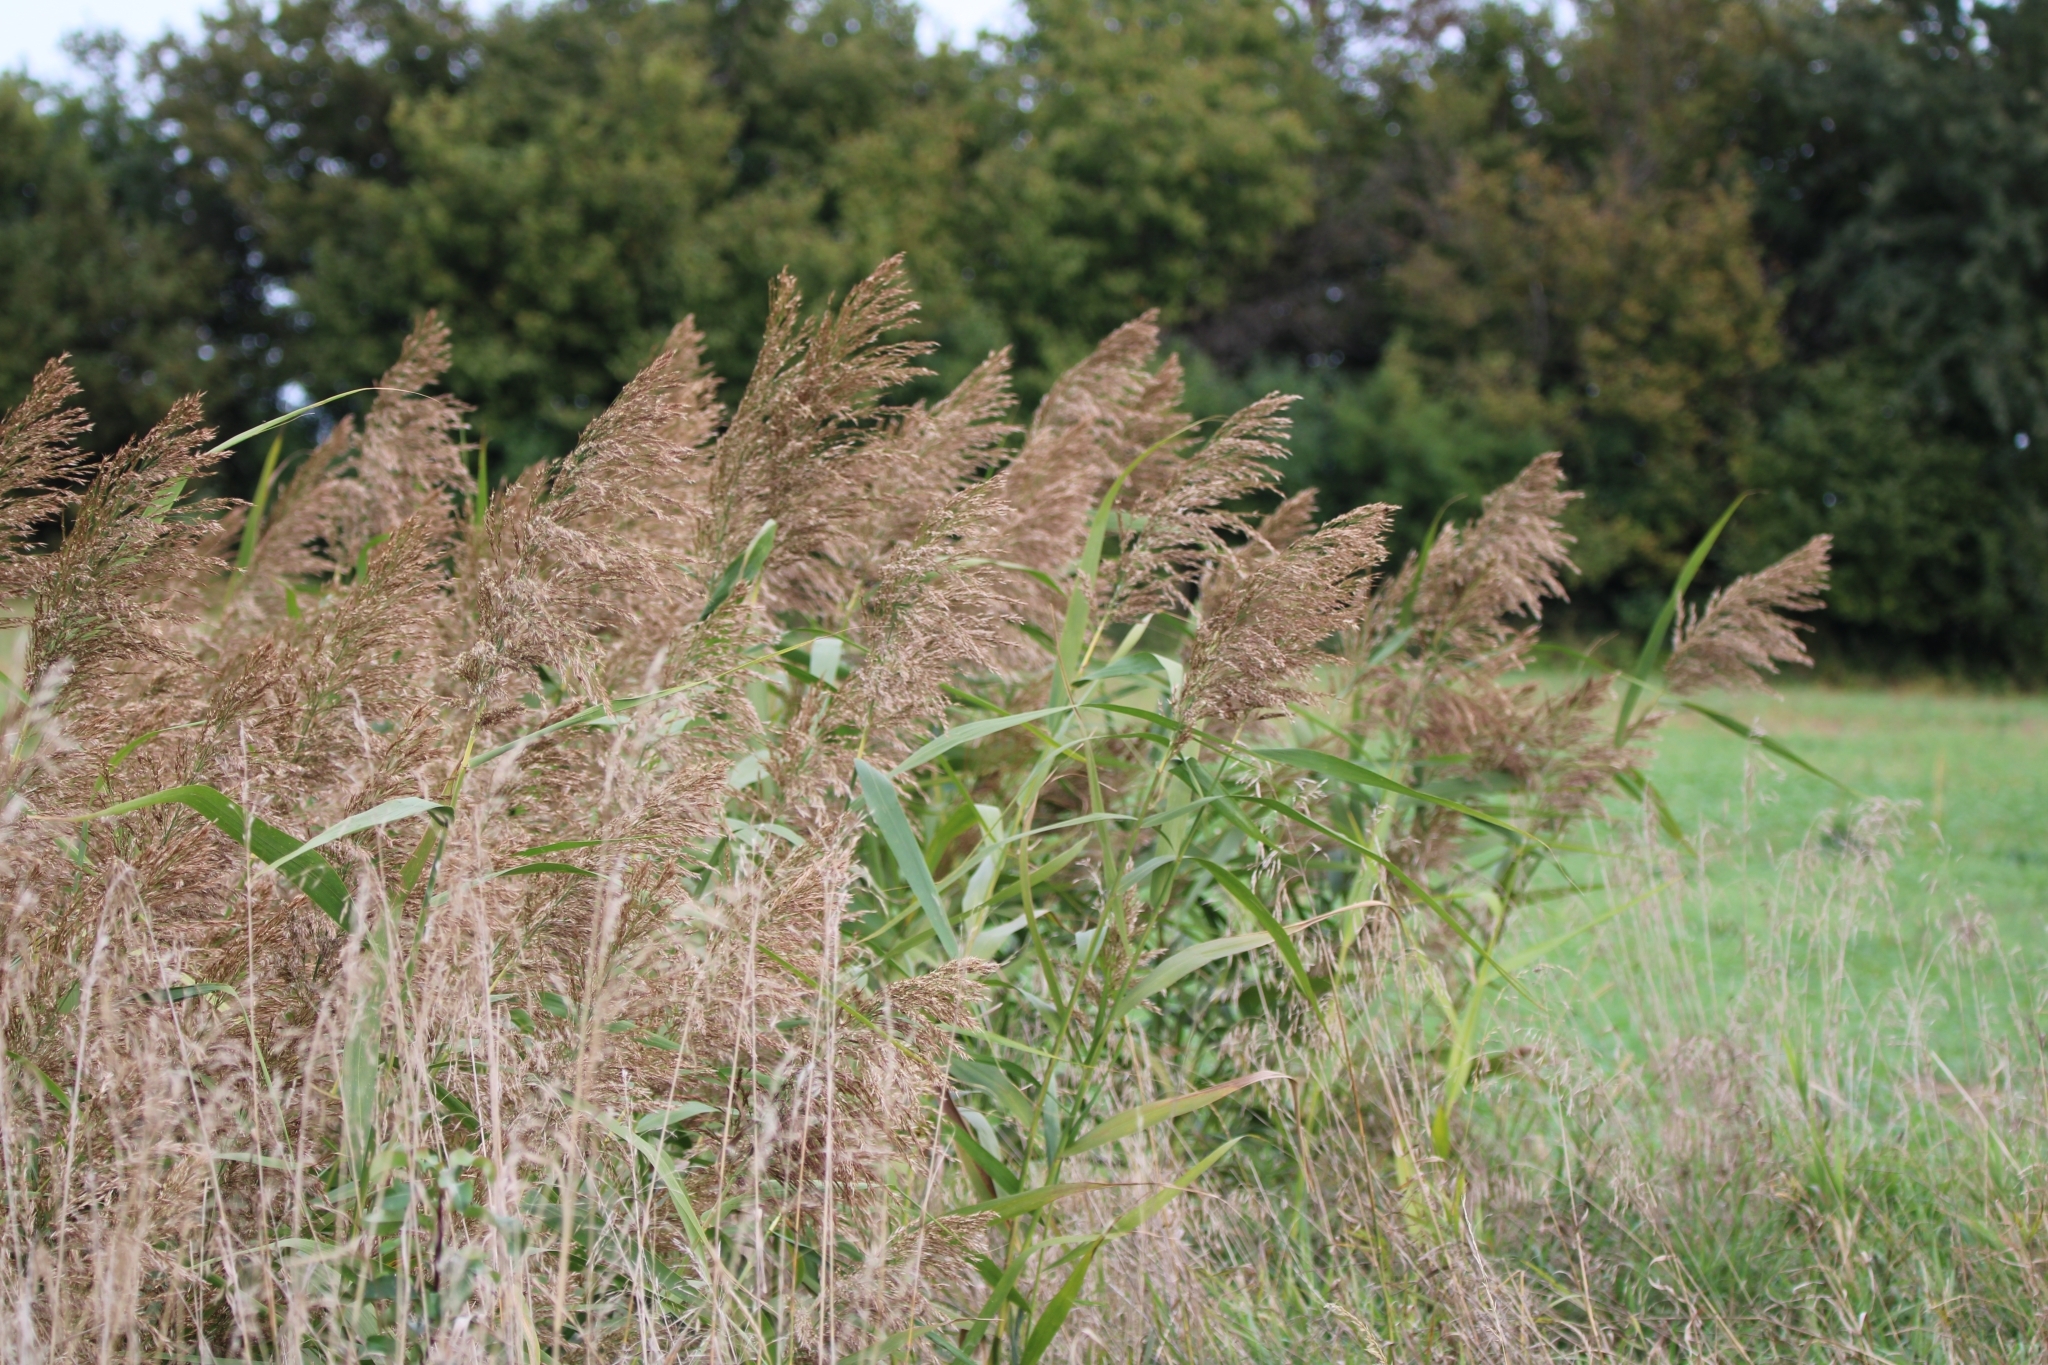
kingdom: Plantae
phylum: Tracheophyta
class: Liliopsida
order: Poales
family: Poaceae
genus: Phragmites
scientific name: Phragmites australis
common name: Common reed
